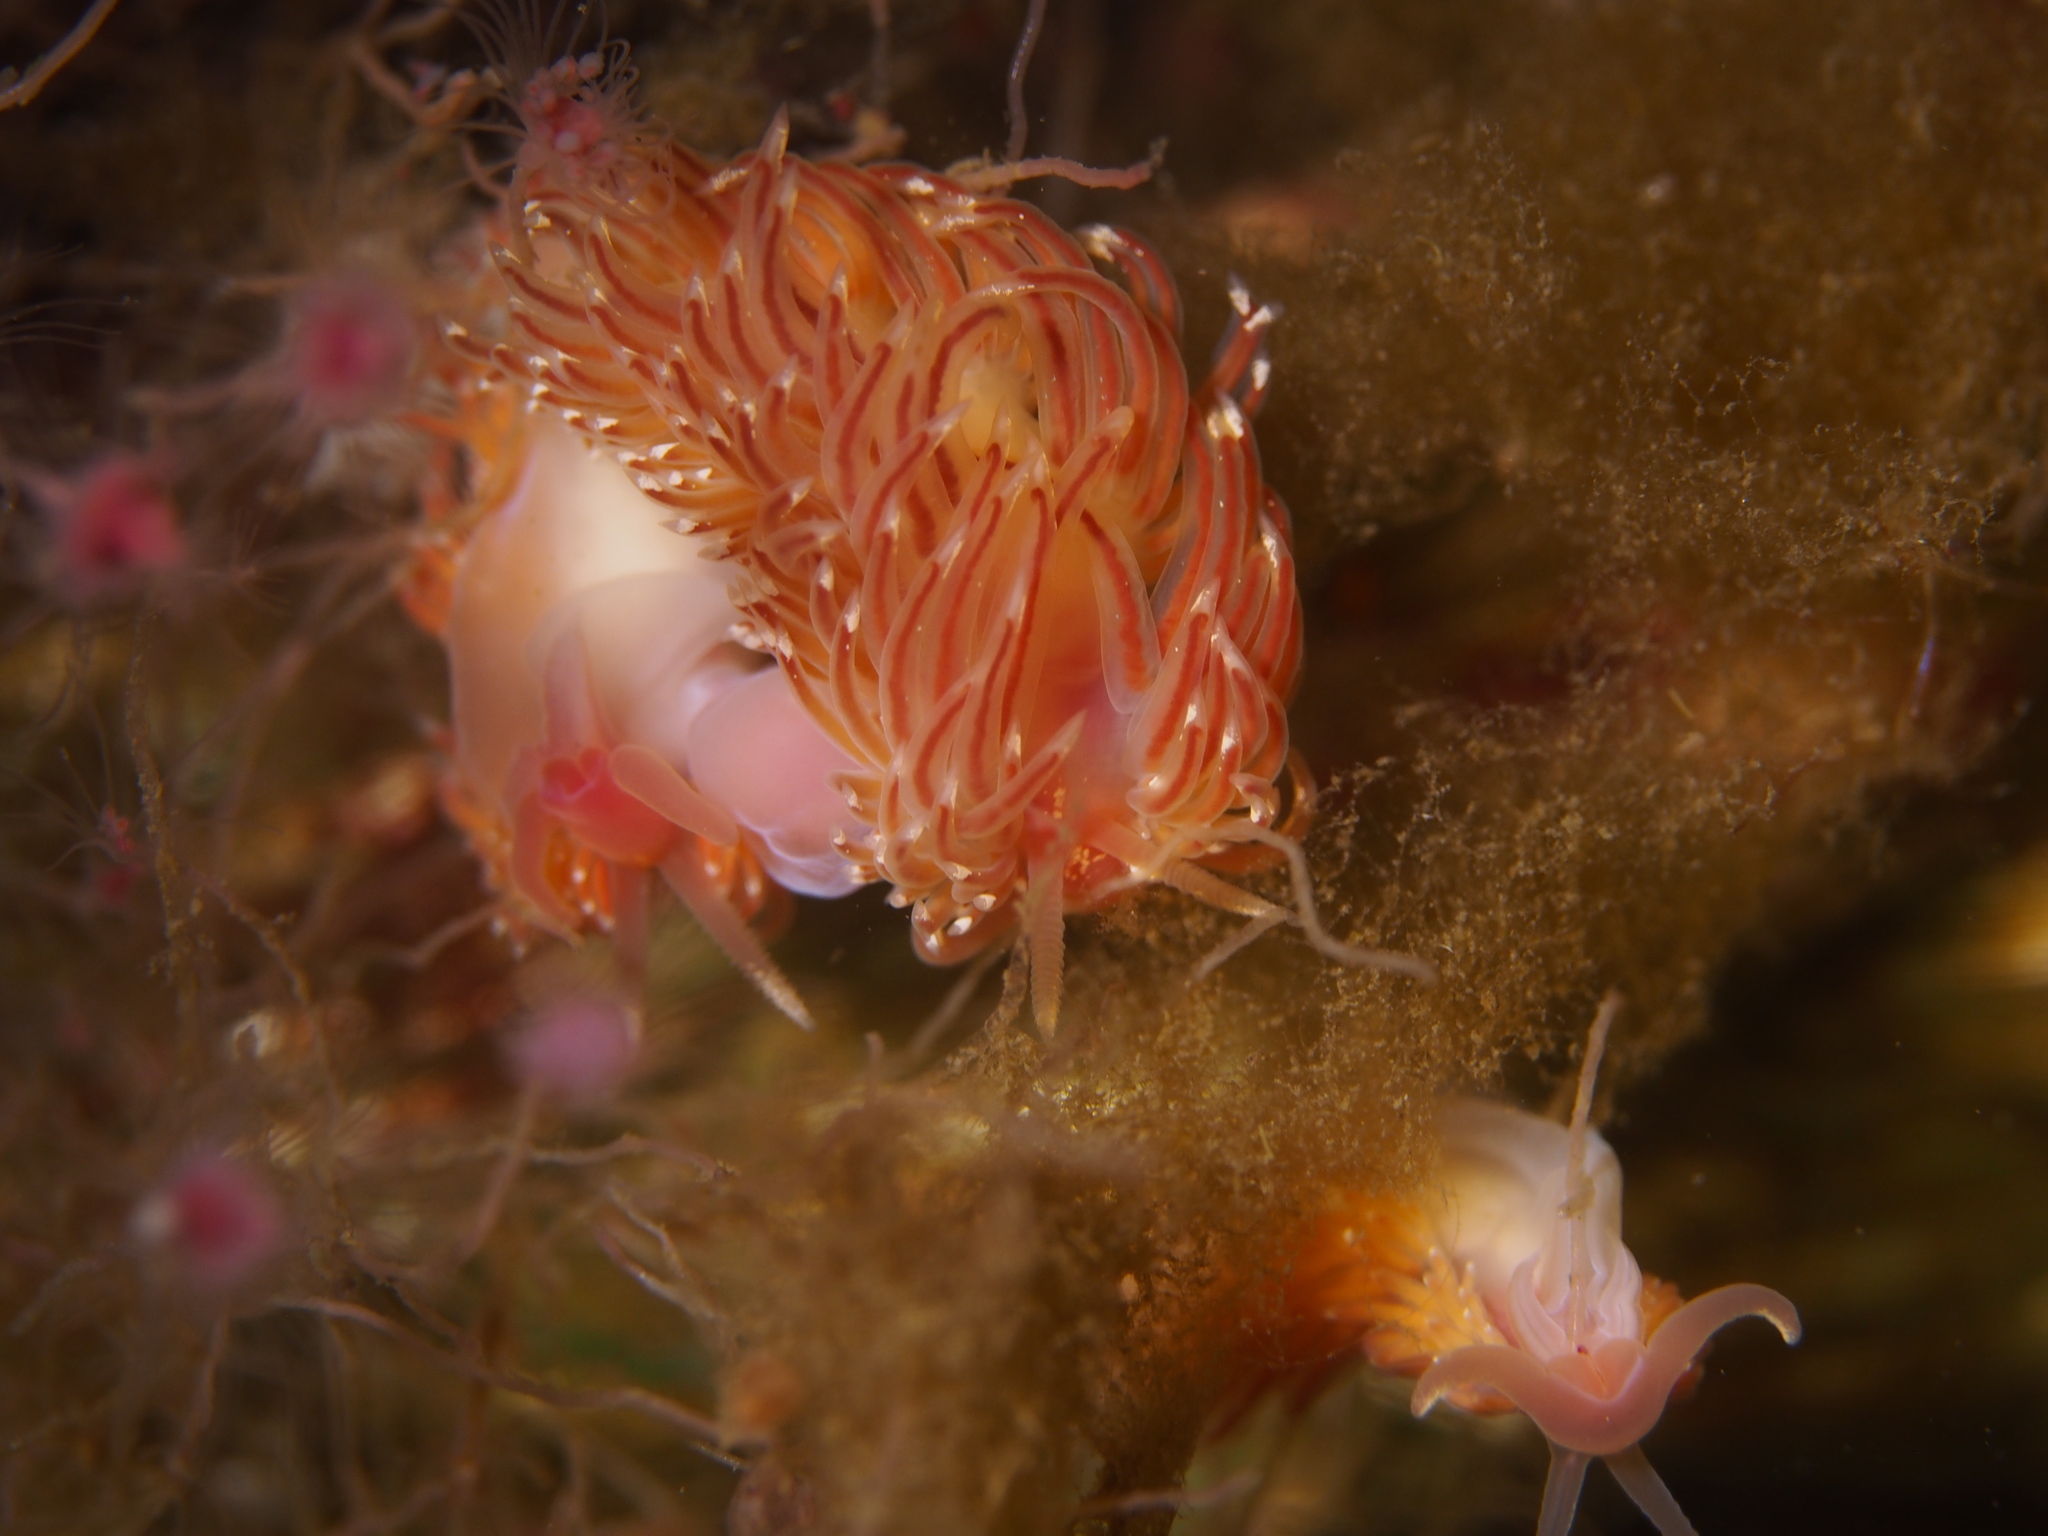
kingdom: Animalia
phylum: Mollusca
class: Gastropoda
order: Nudibranchia
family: Facelinidae
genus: Facelina
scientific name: Facelina bostoniensis
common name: Boston facelina
